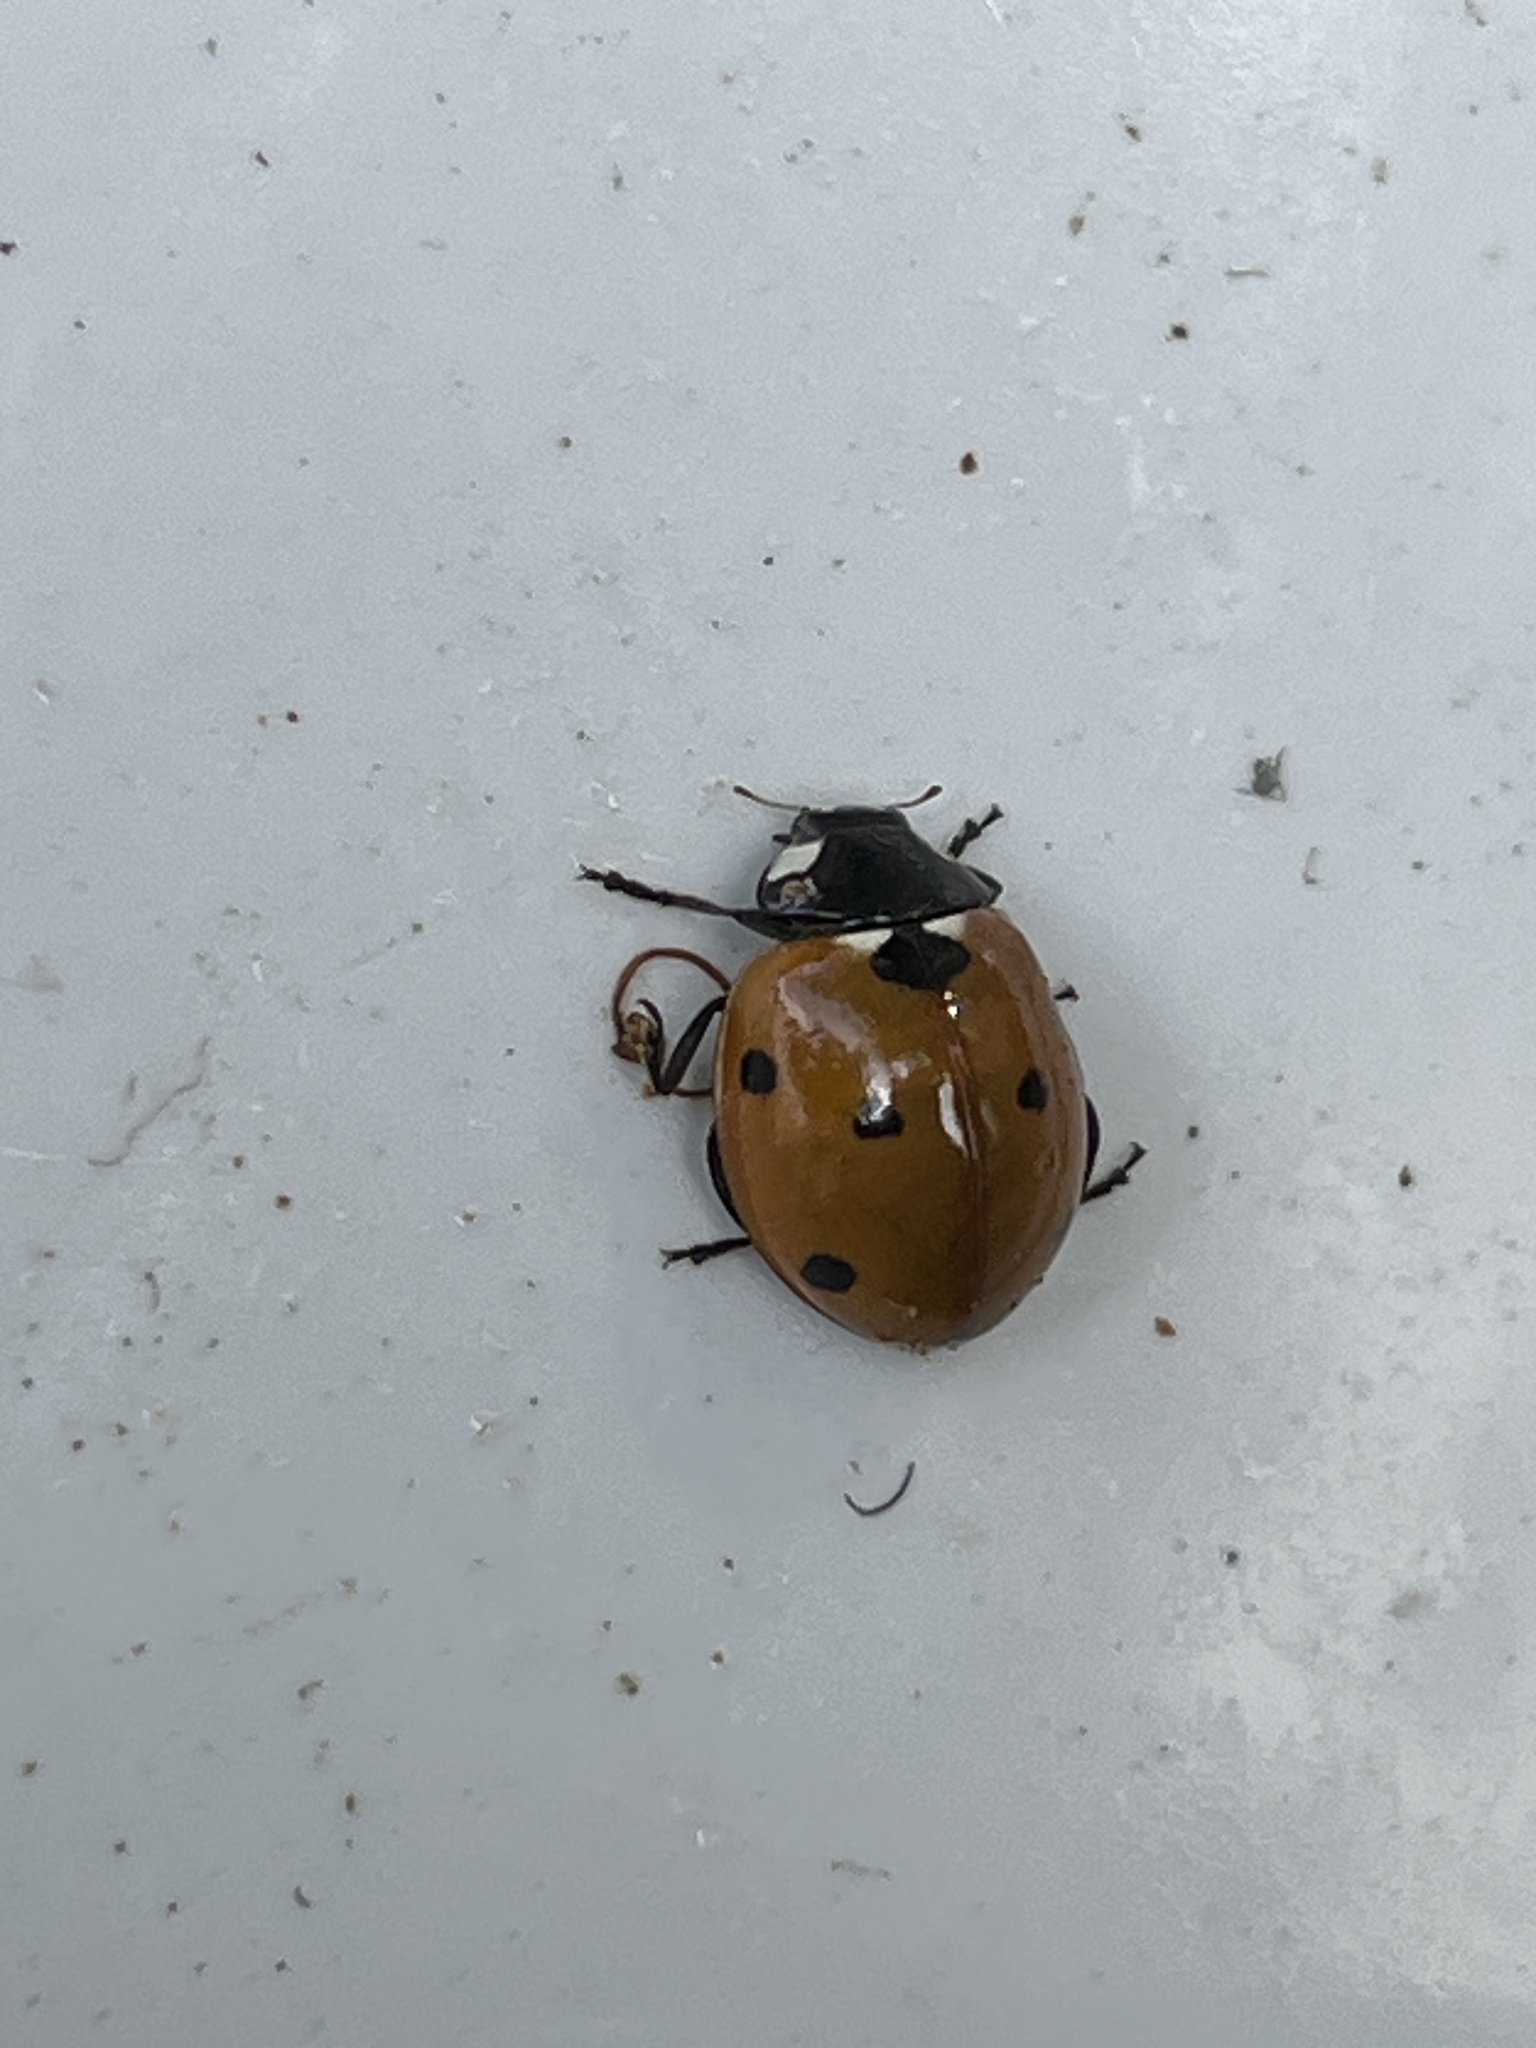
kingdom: Animalia
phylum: Arthropoda
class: Insecta
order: Coleoptera
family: Coccinellidae
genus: Coccinella
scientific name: Coccinella septempunctata
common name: Sevenspotted lady beetle
